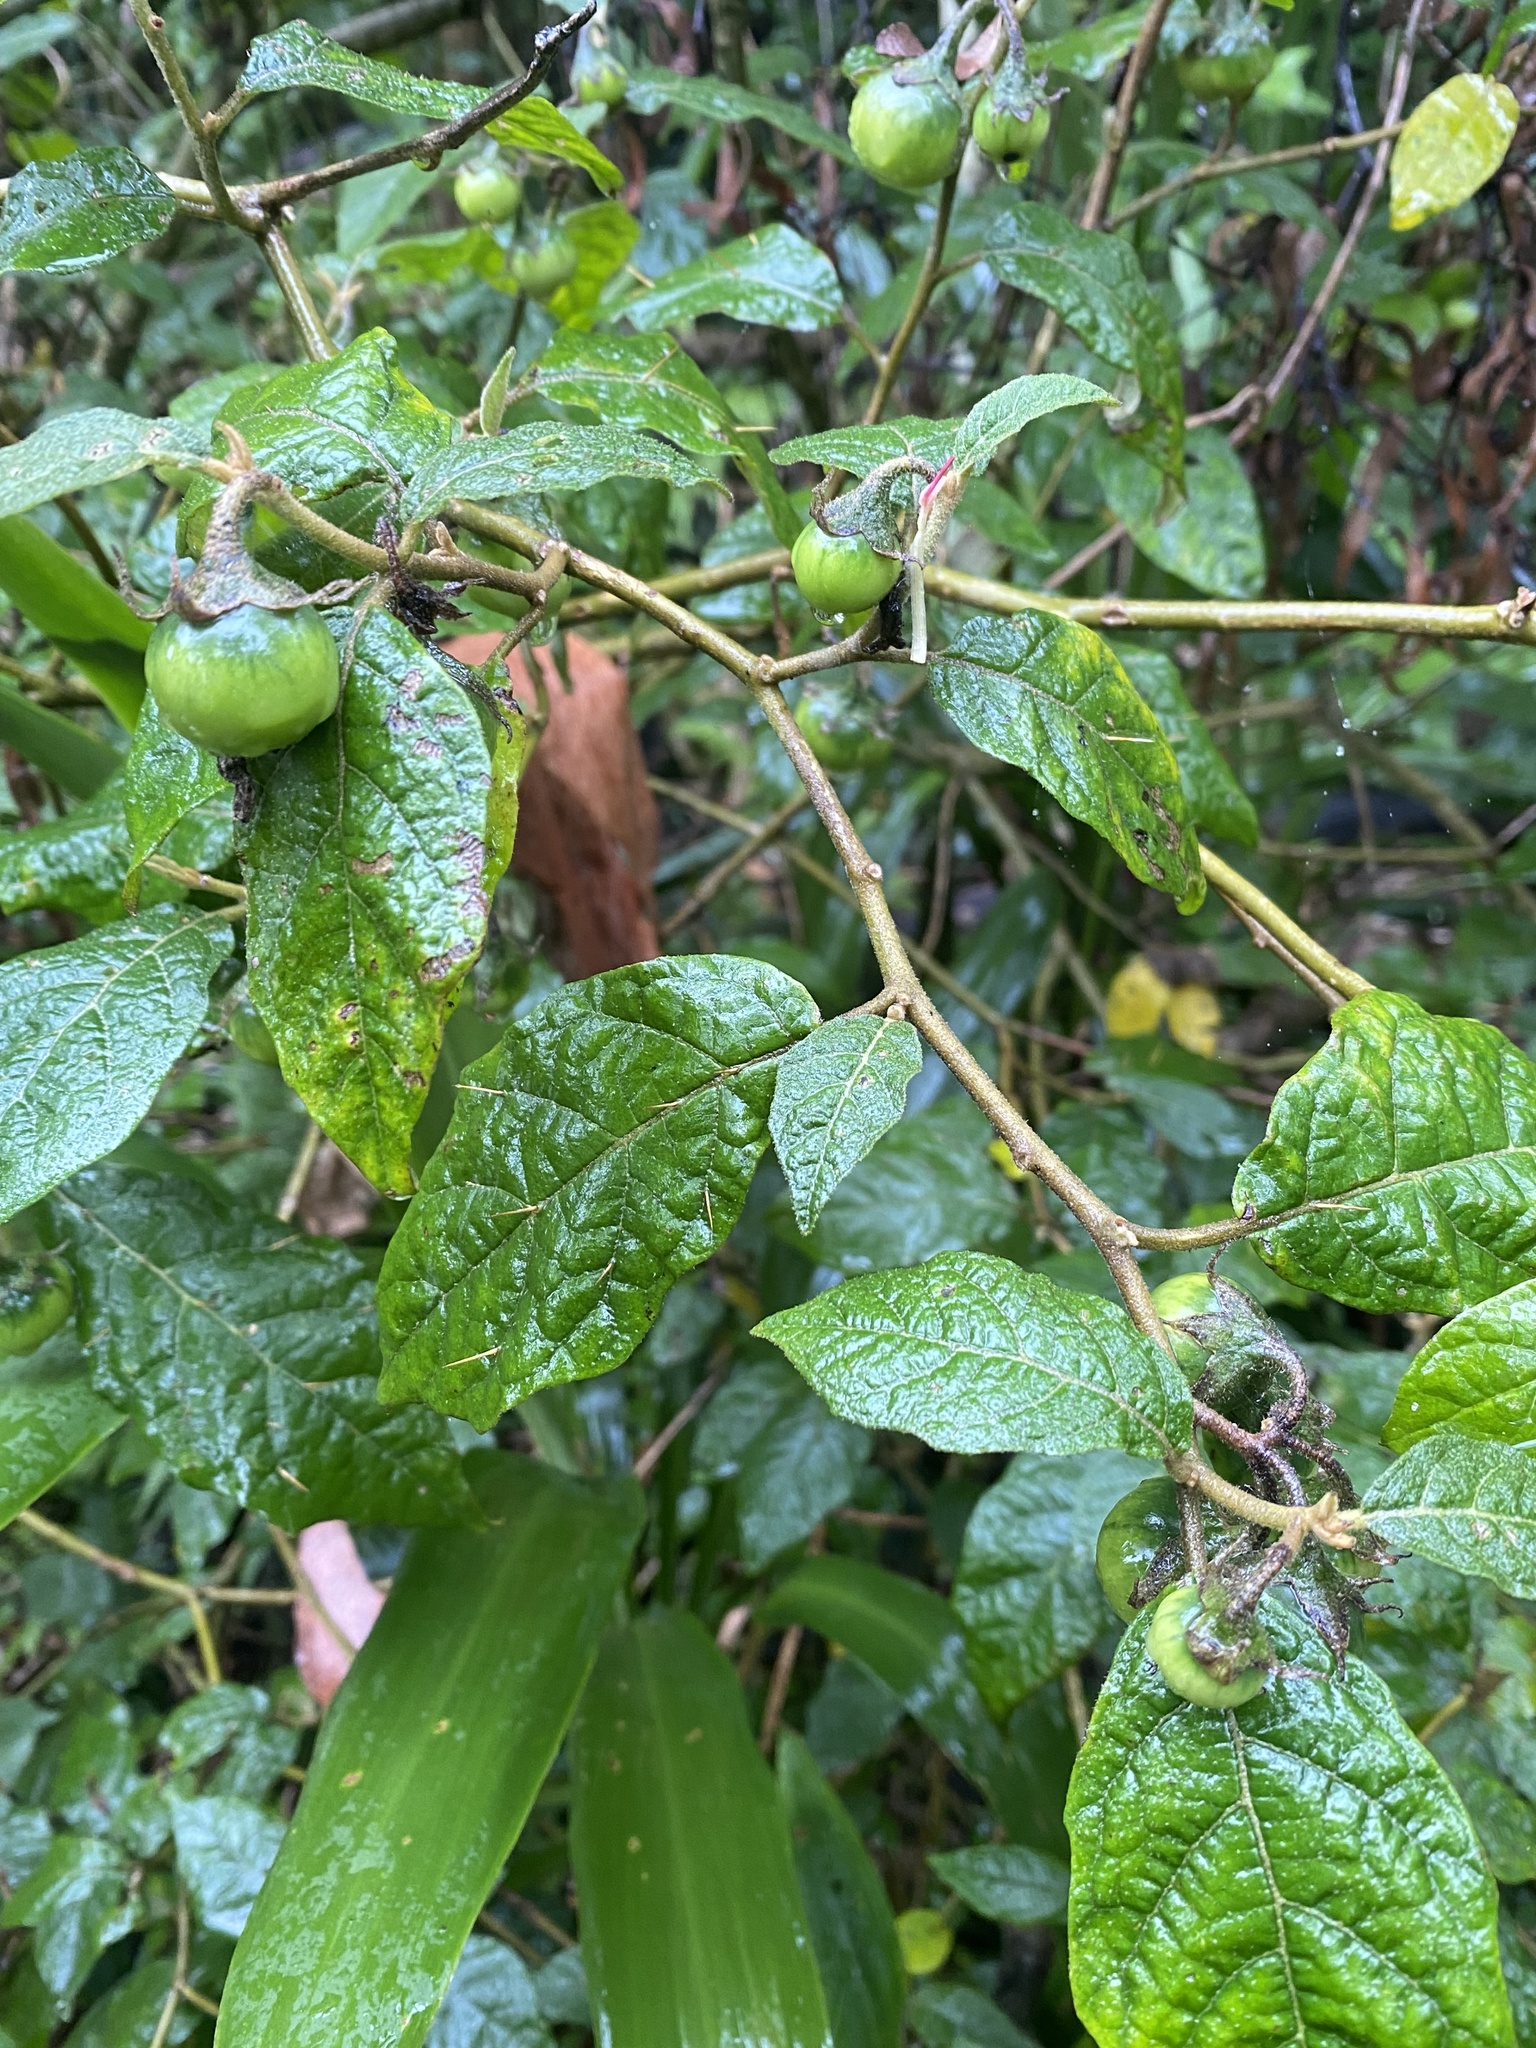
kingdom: Plantae
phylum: Tracheophyta
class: Magnoliopsida
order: Solanales
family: Solanaceae
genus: Solanum
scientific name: Solanum rixosum
